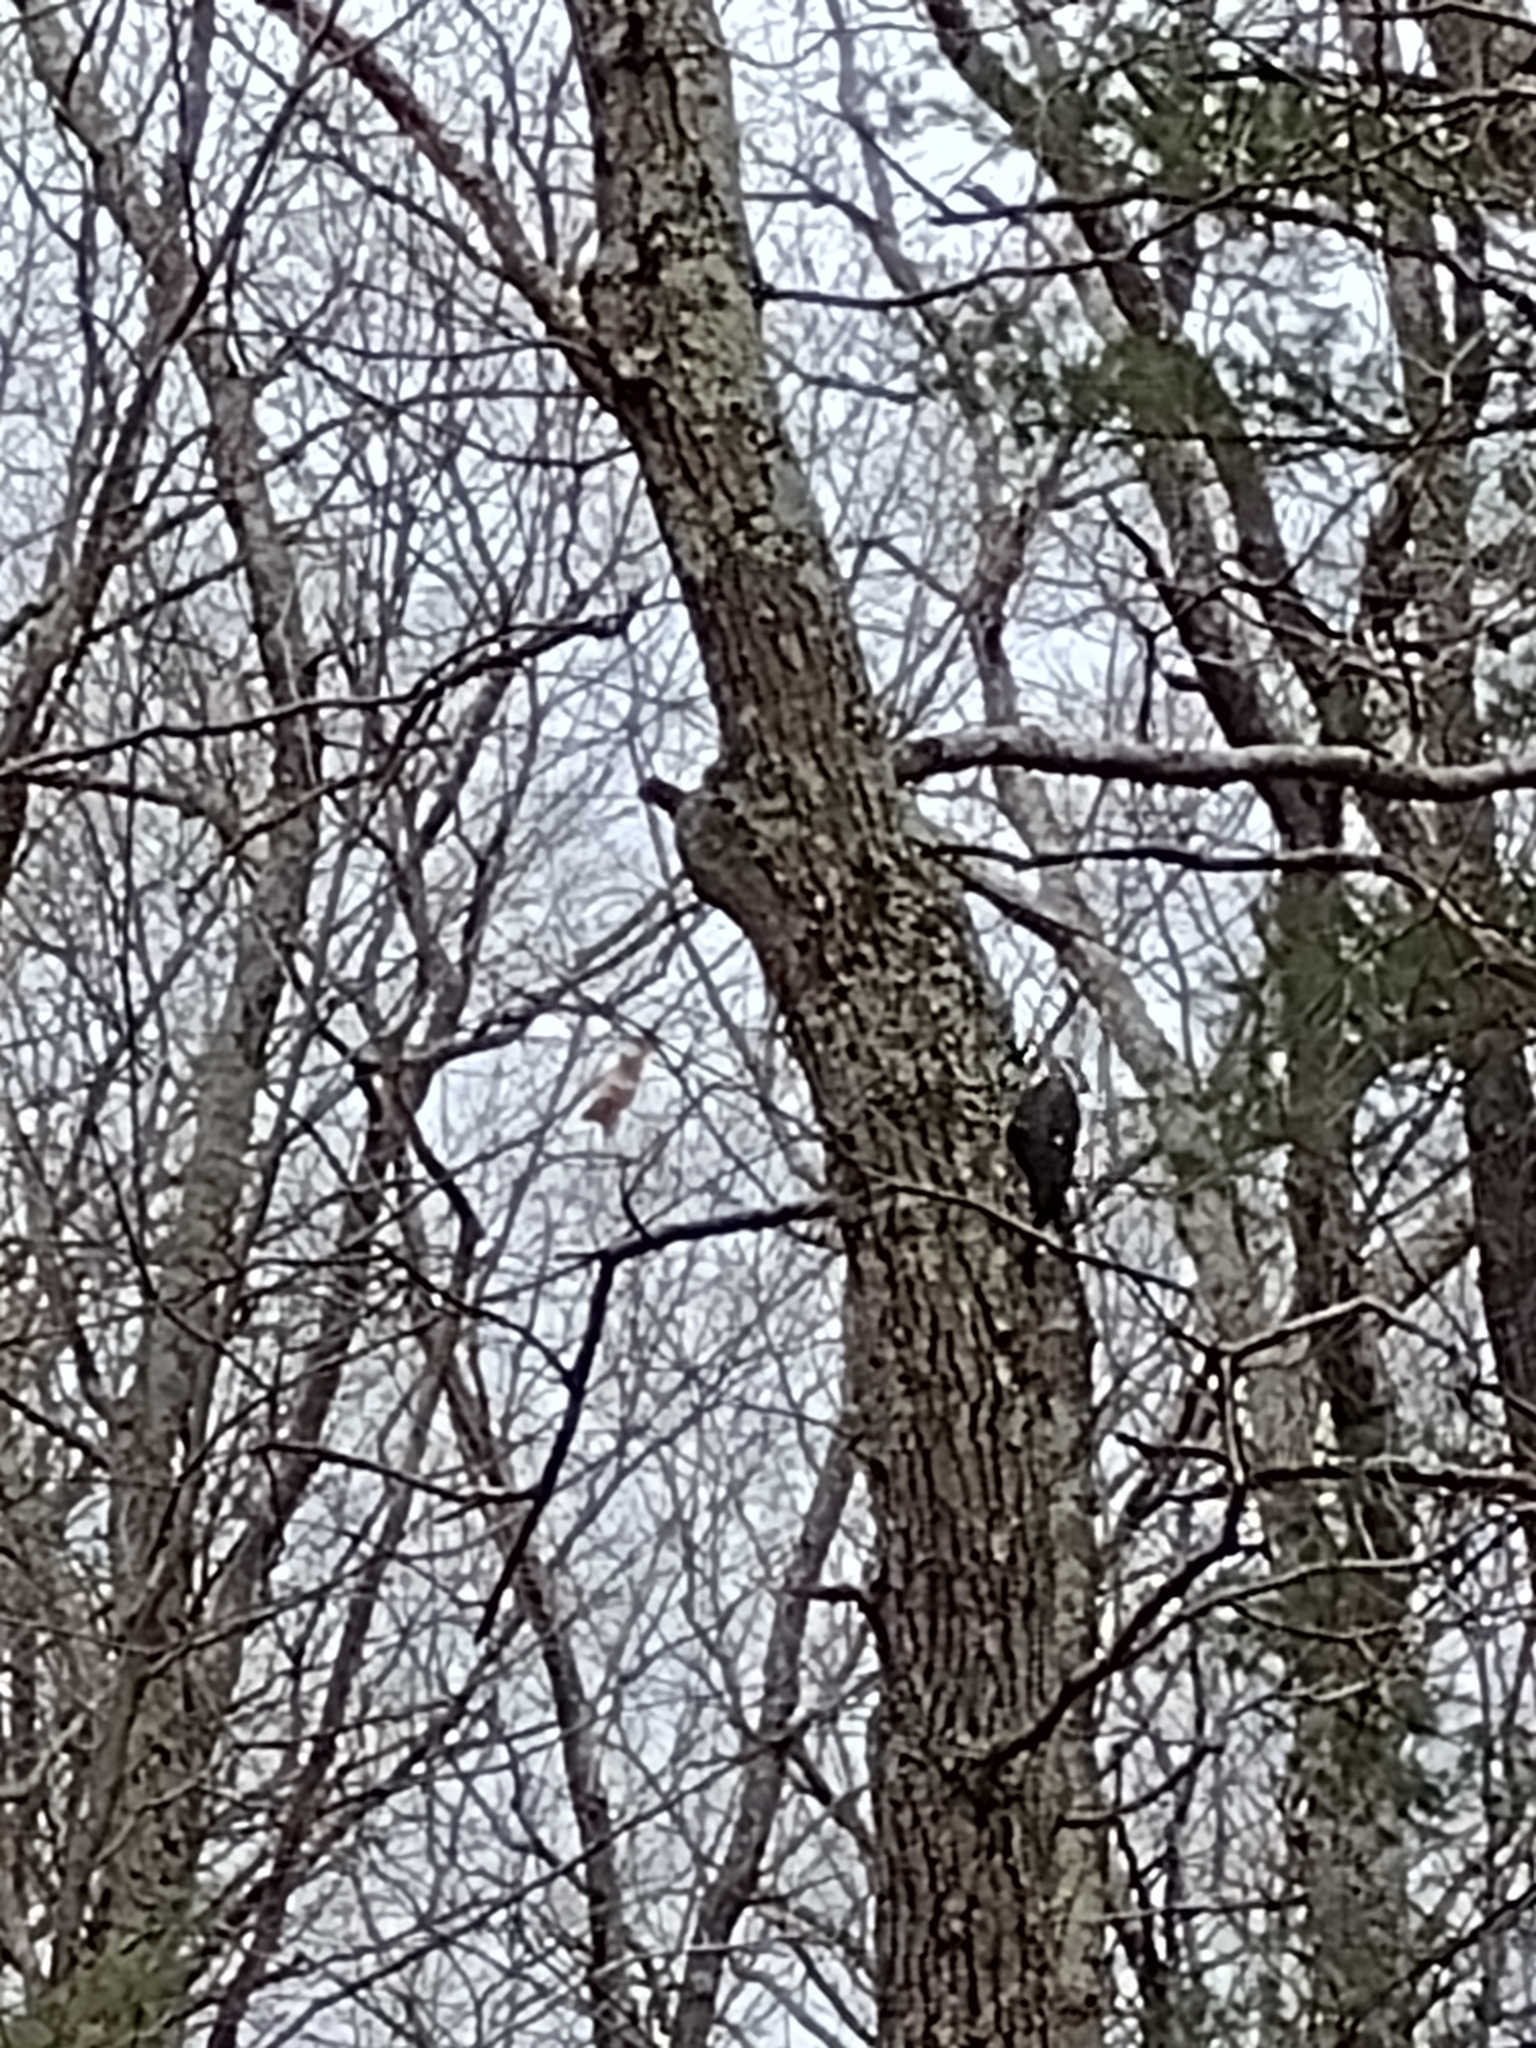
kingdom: Animalia
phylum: Chordata
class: Aves
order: Piciformes
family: Picidae
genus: Dryocopus
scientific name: Dryocopus pileatus
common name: Pileated woodpecker
